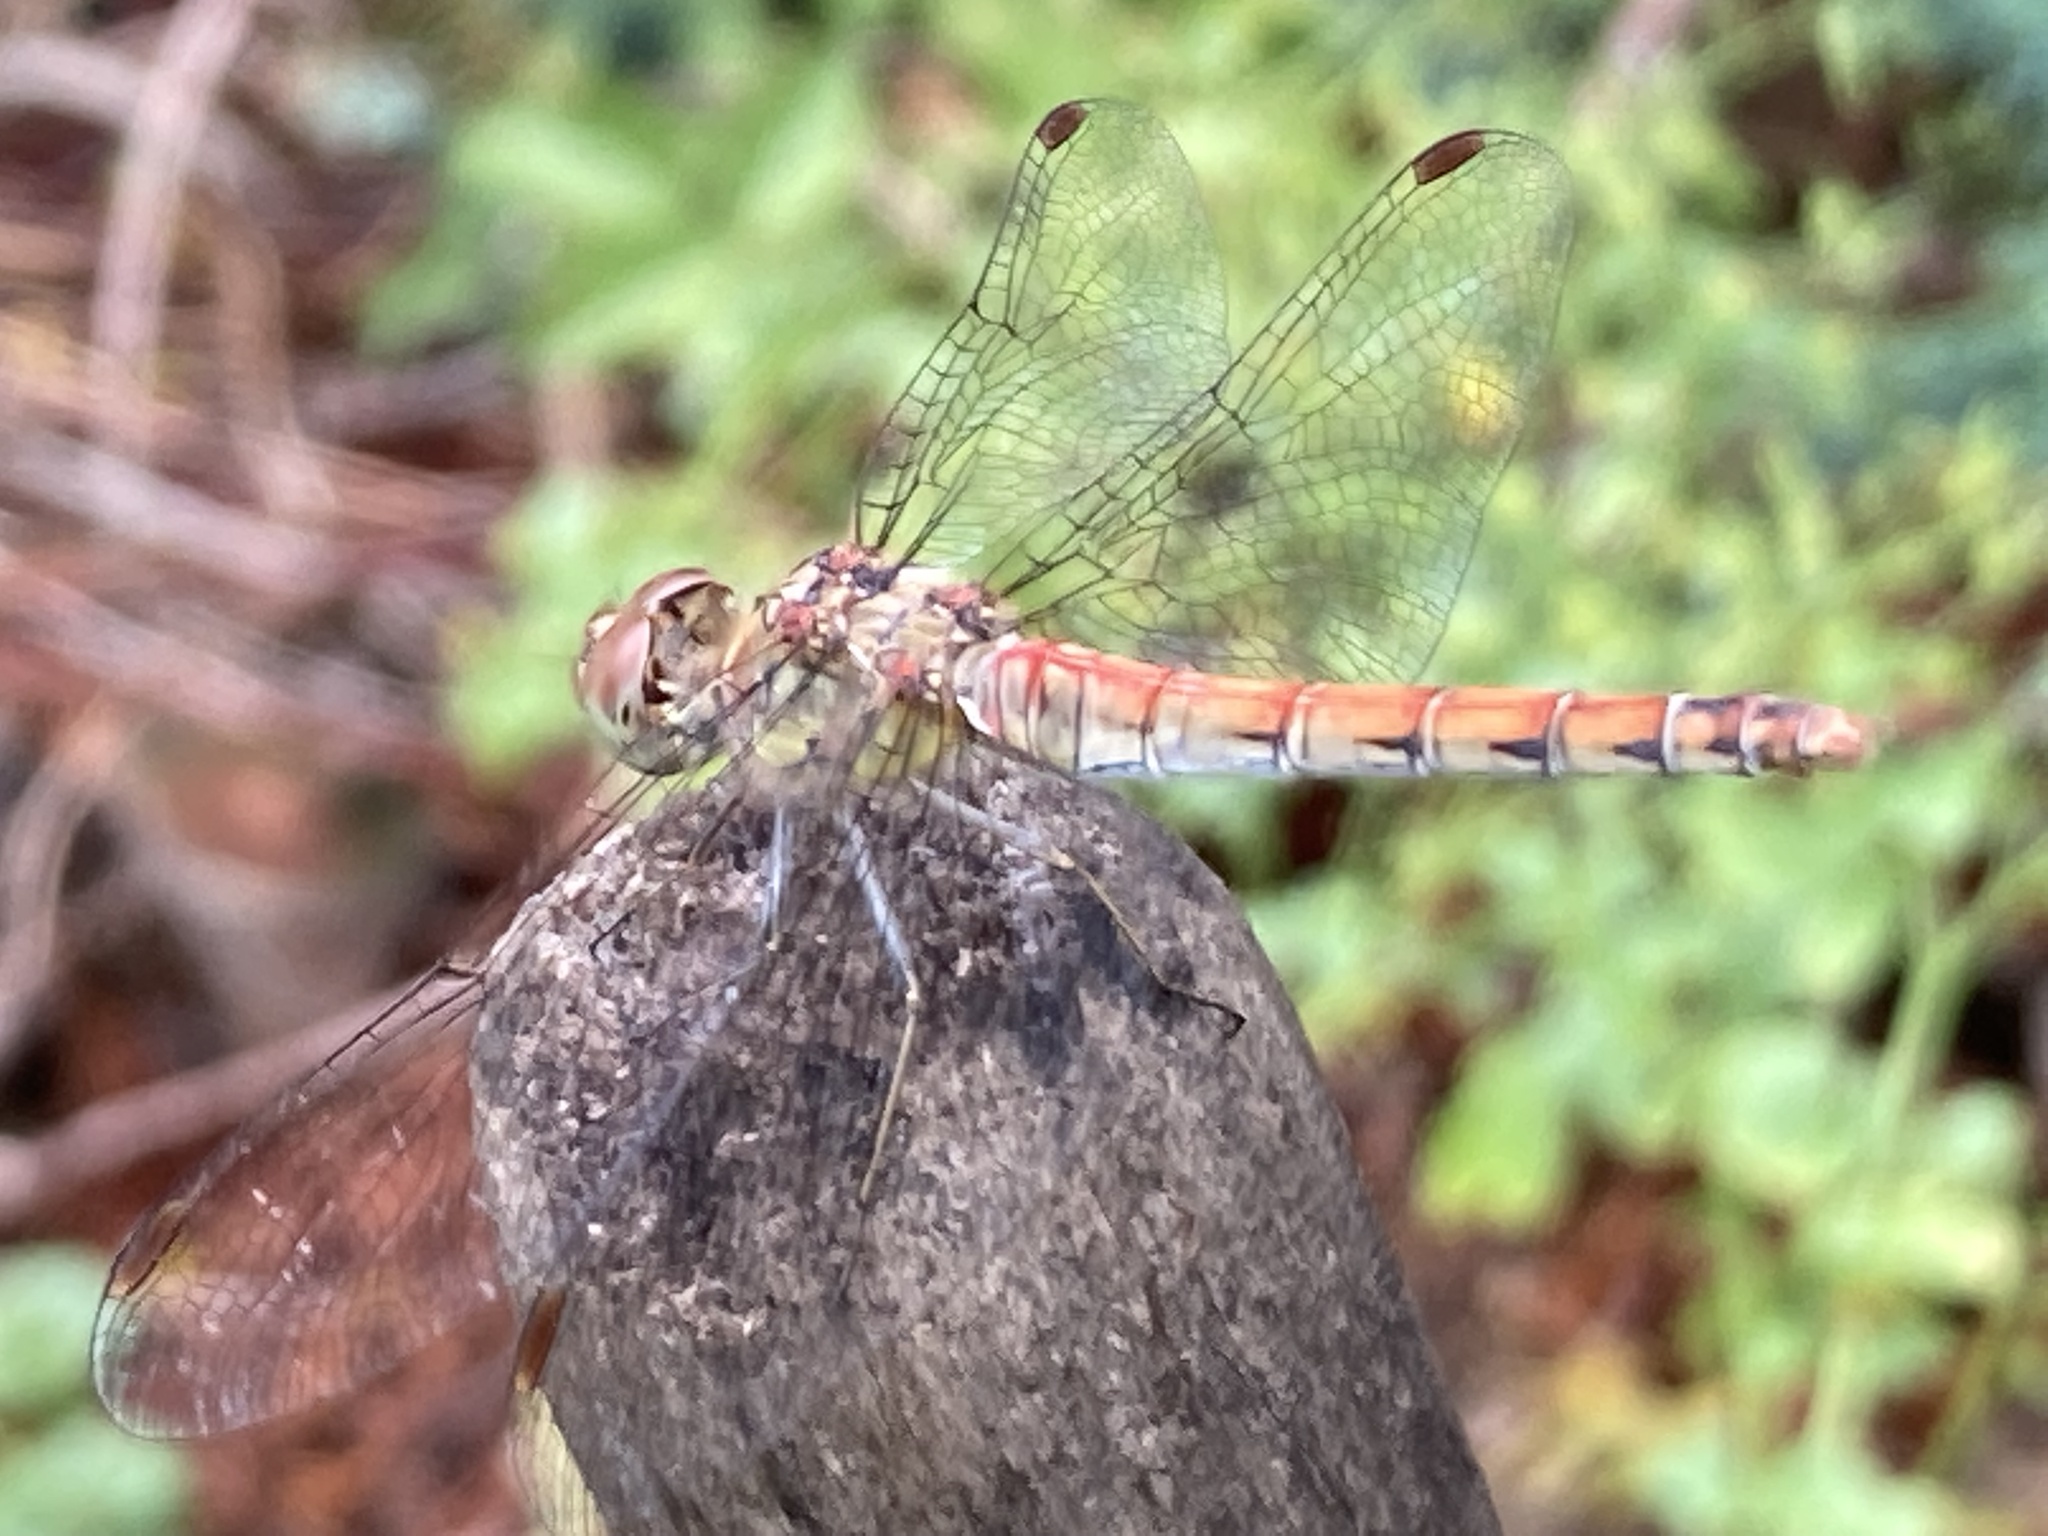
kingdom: Animalia
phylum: Arthropoda
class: Insecta
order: Odonata
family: Libellulidae
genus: Sympetrum
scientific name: Sympetrum striolatum
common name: Common darter
